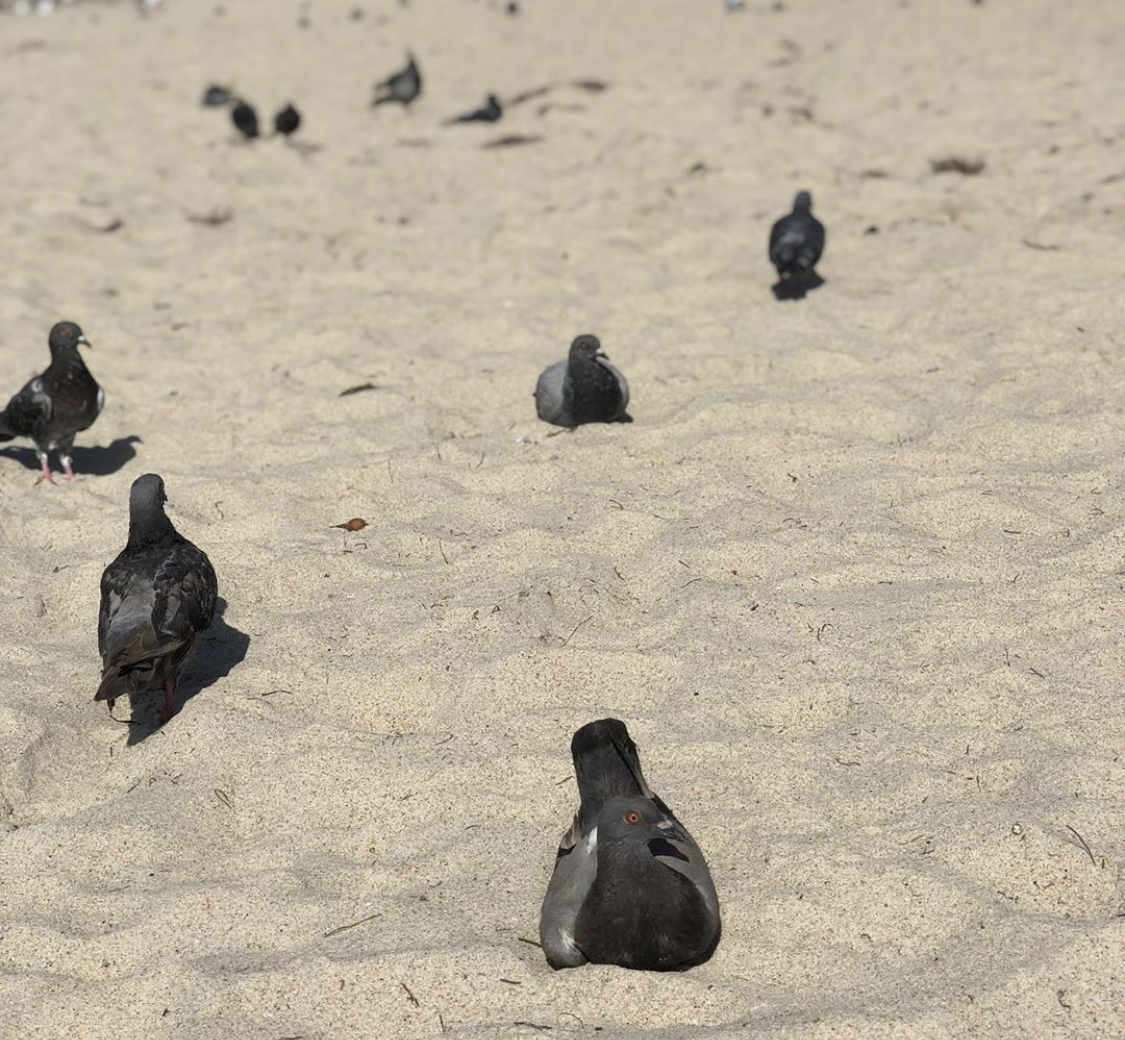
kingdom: Animalia
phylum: Chordata
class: Aves
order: Columbiformes
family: Columbidae
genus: Columba
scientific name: Columba livia
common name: Rock pigeon
